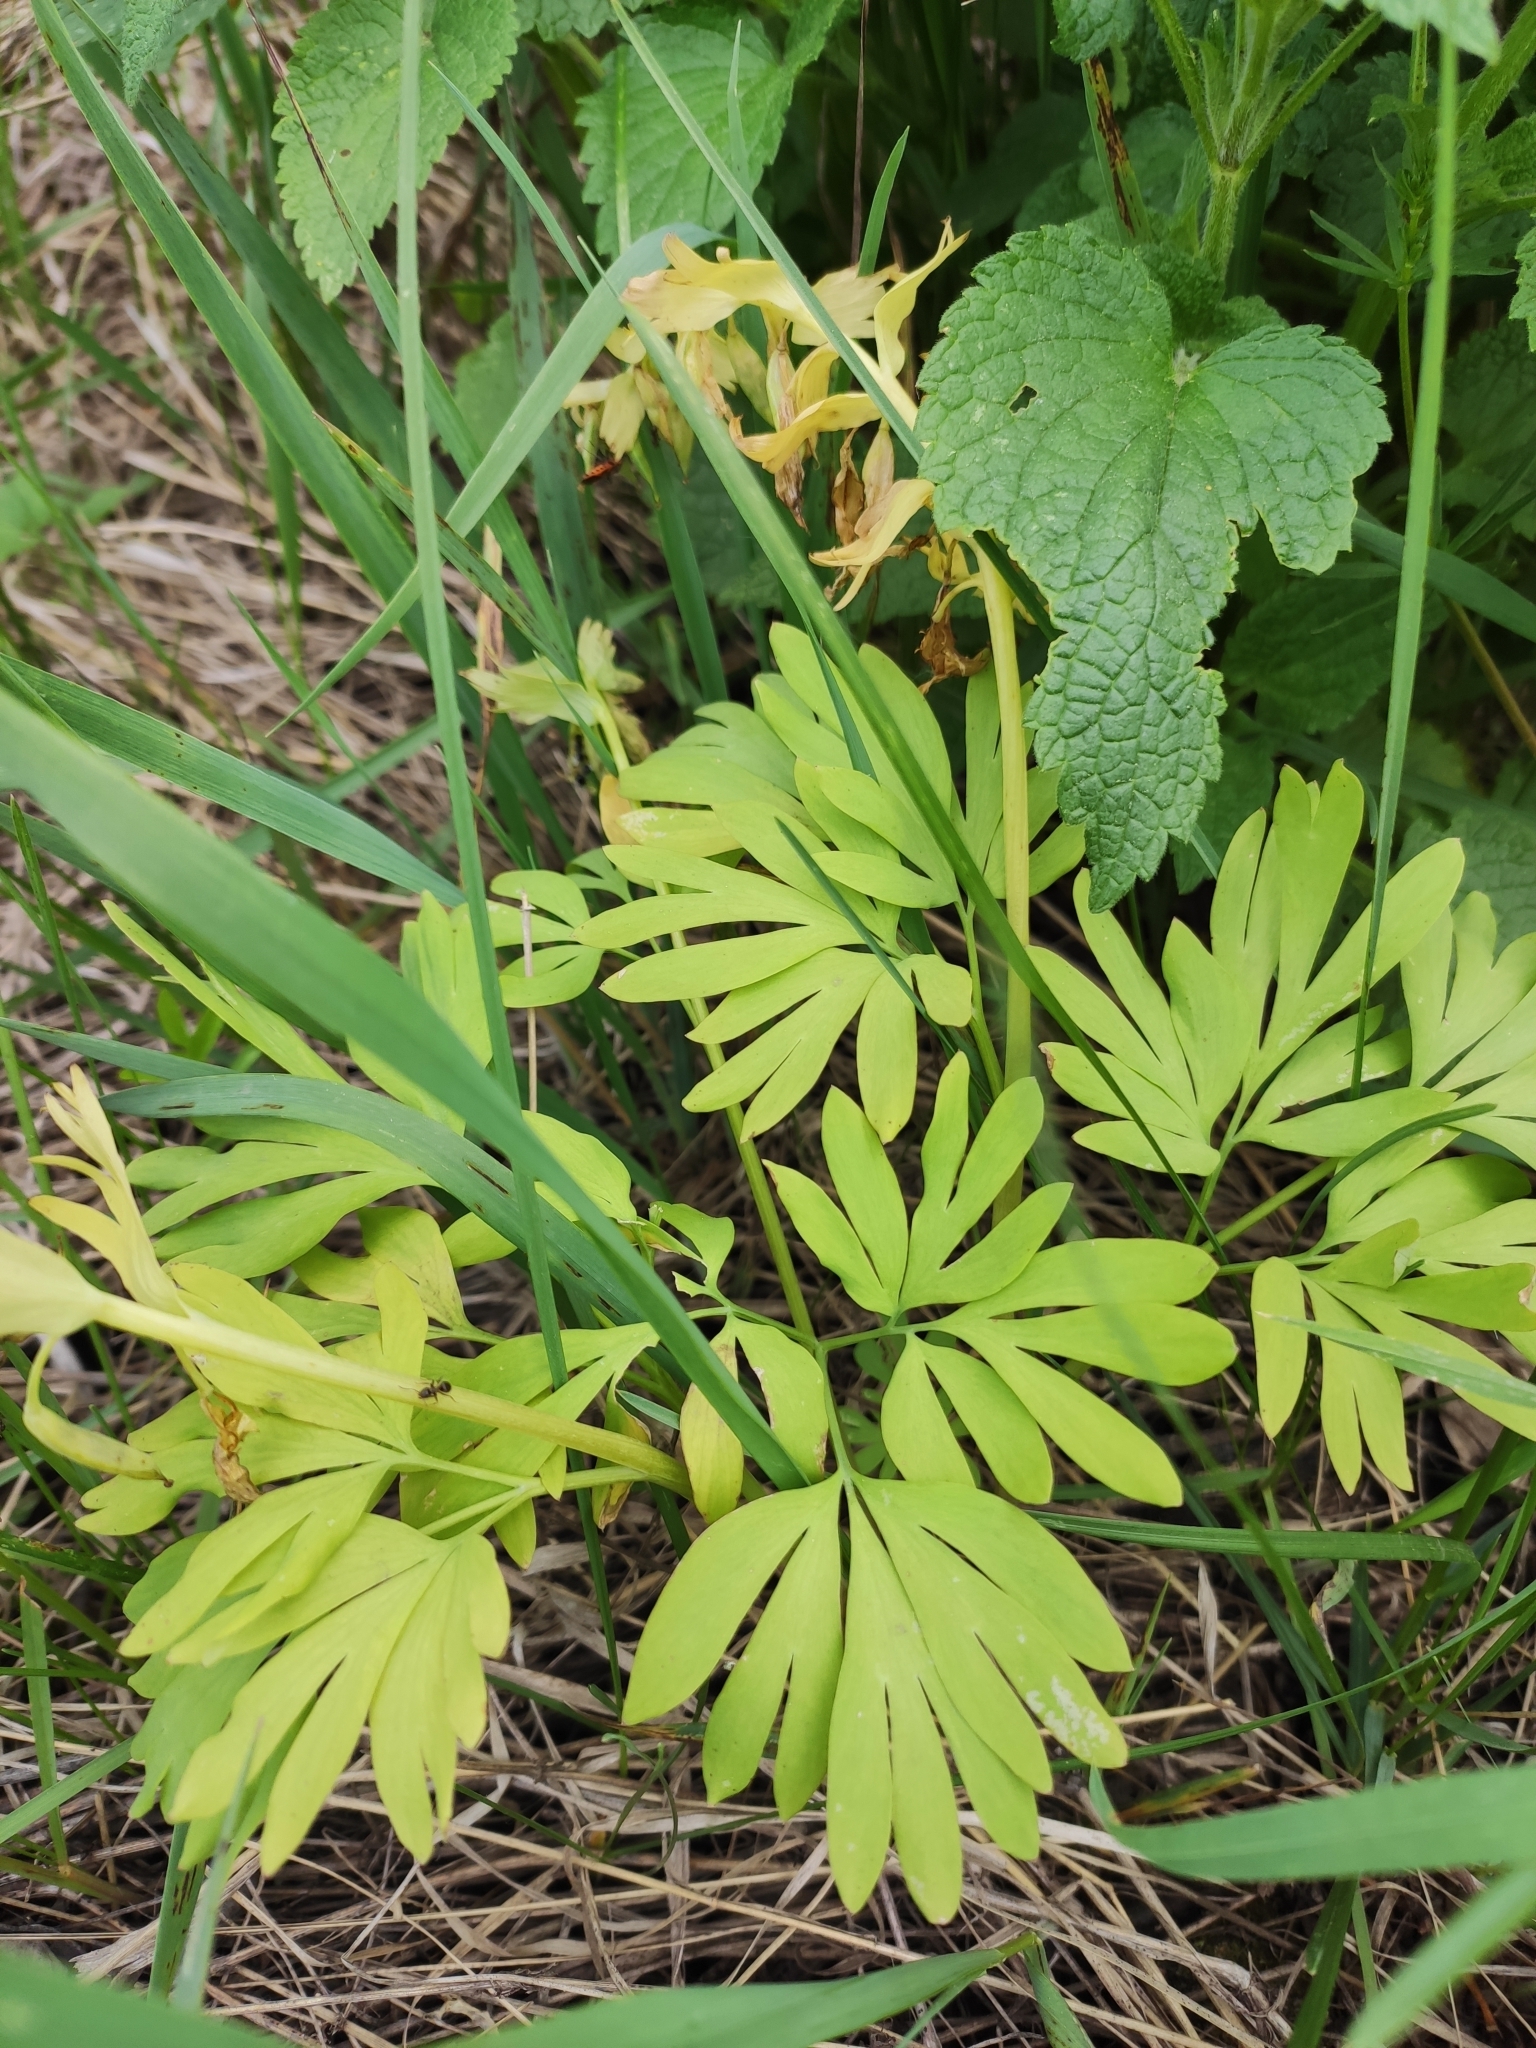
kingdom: Plantae
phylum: Tracheophyta
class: Magnoliopsida
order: Ranunculales
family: Papaveraceae
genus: Corydalis
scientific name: Corydalis bracteata
